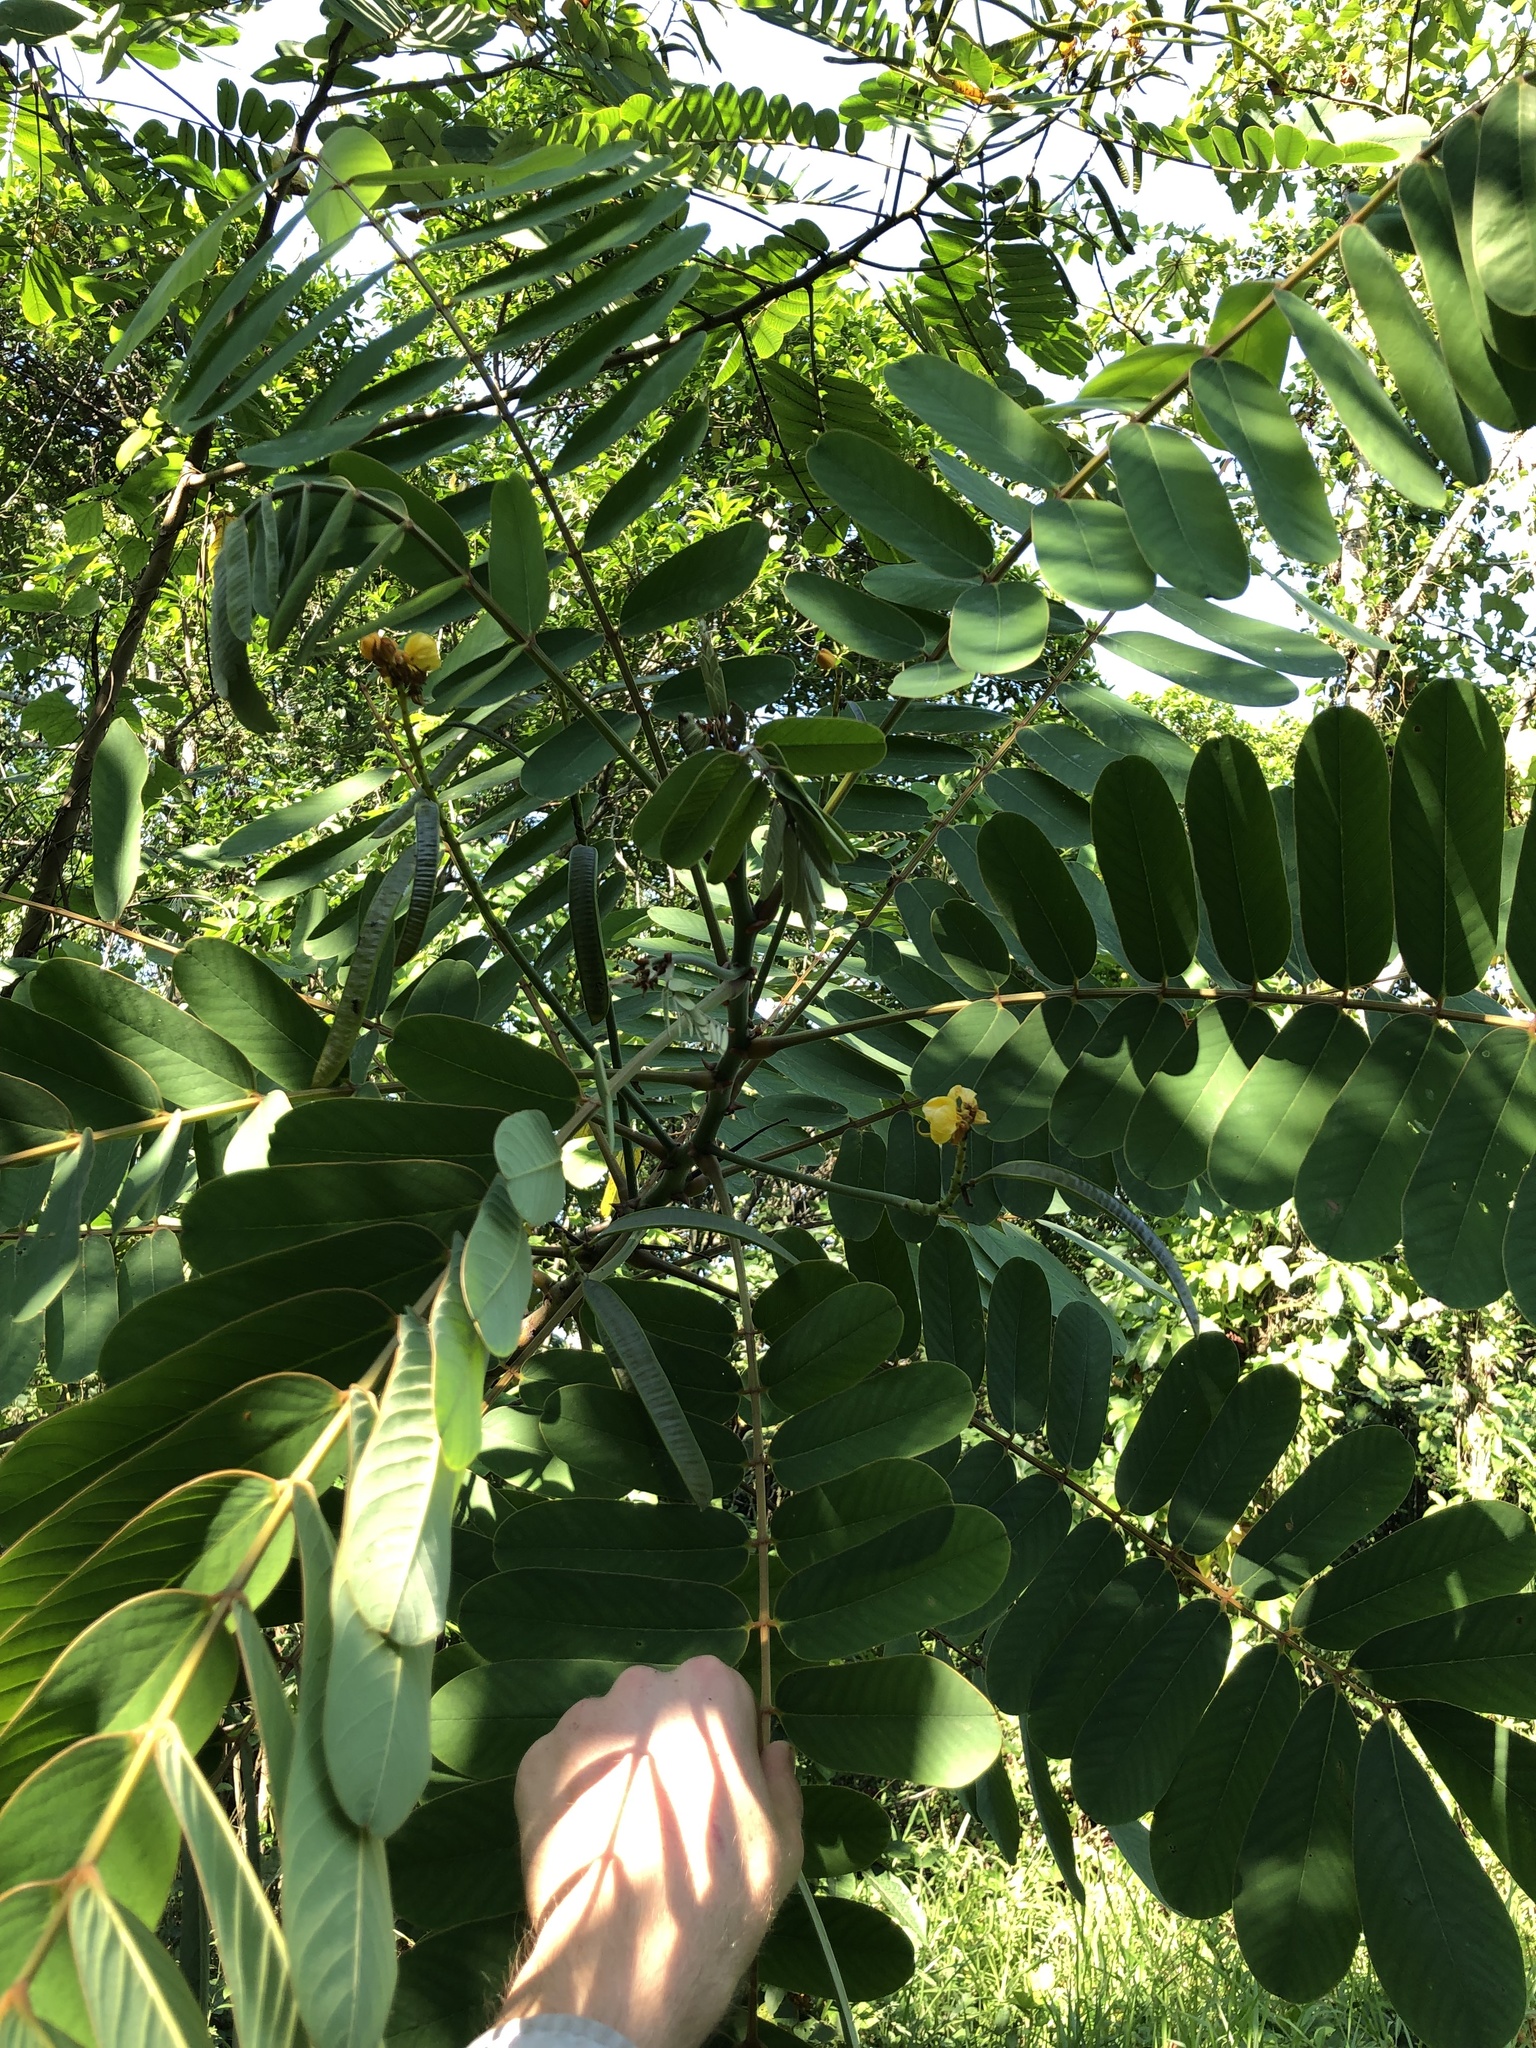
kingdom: Plantae
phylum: Tracheophyta
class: Magnoliopsida
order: Fabales
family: Fabaceae
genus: Senna
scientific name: Senna reticulata
